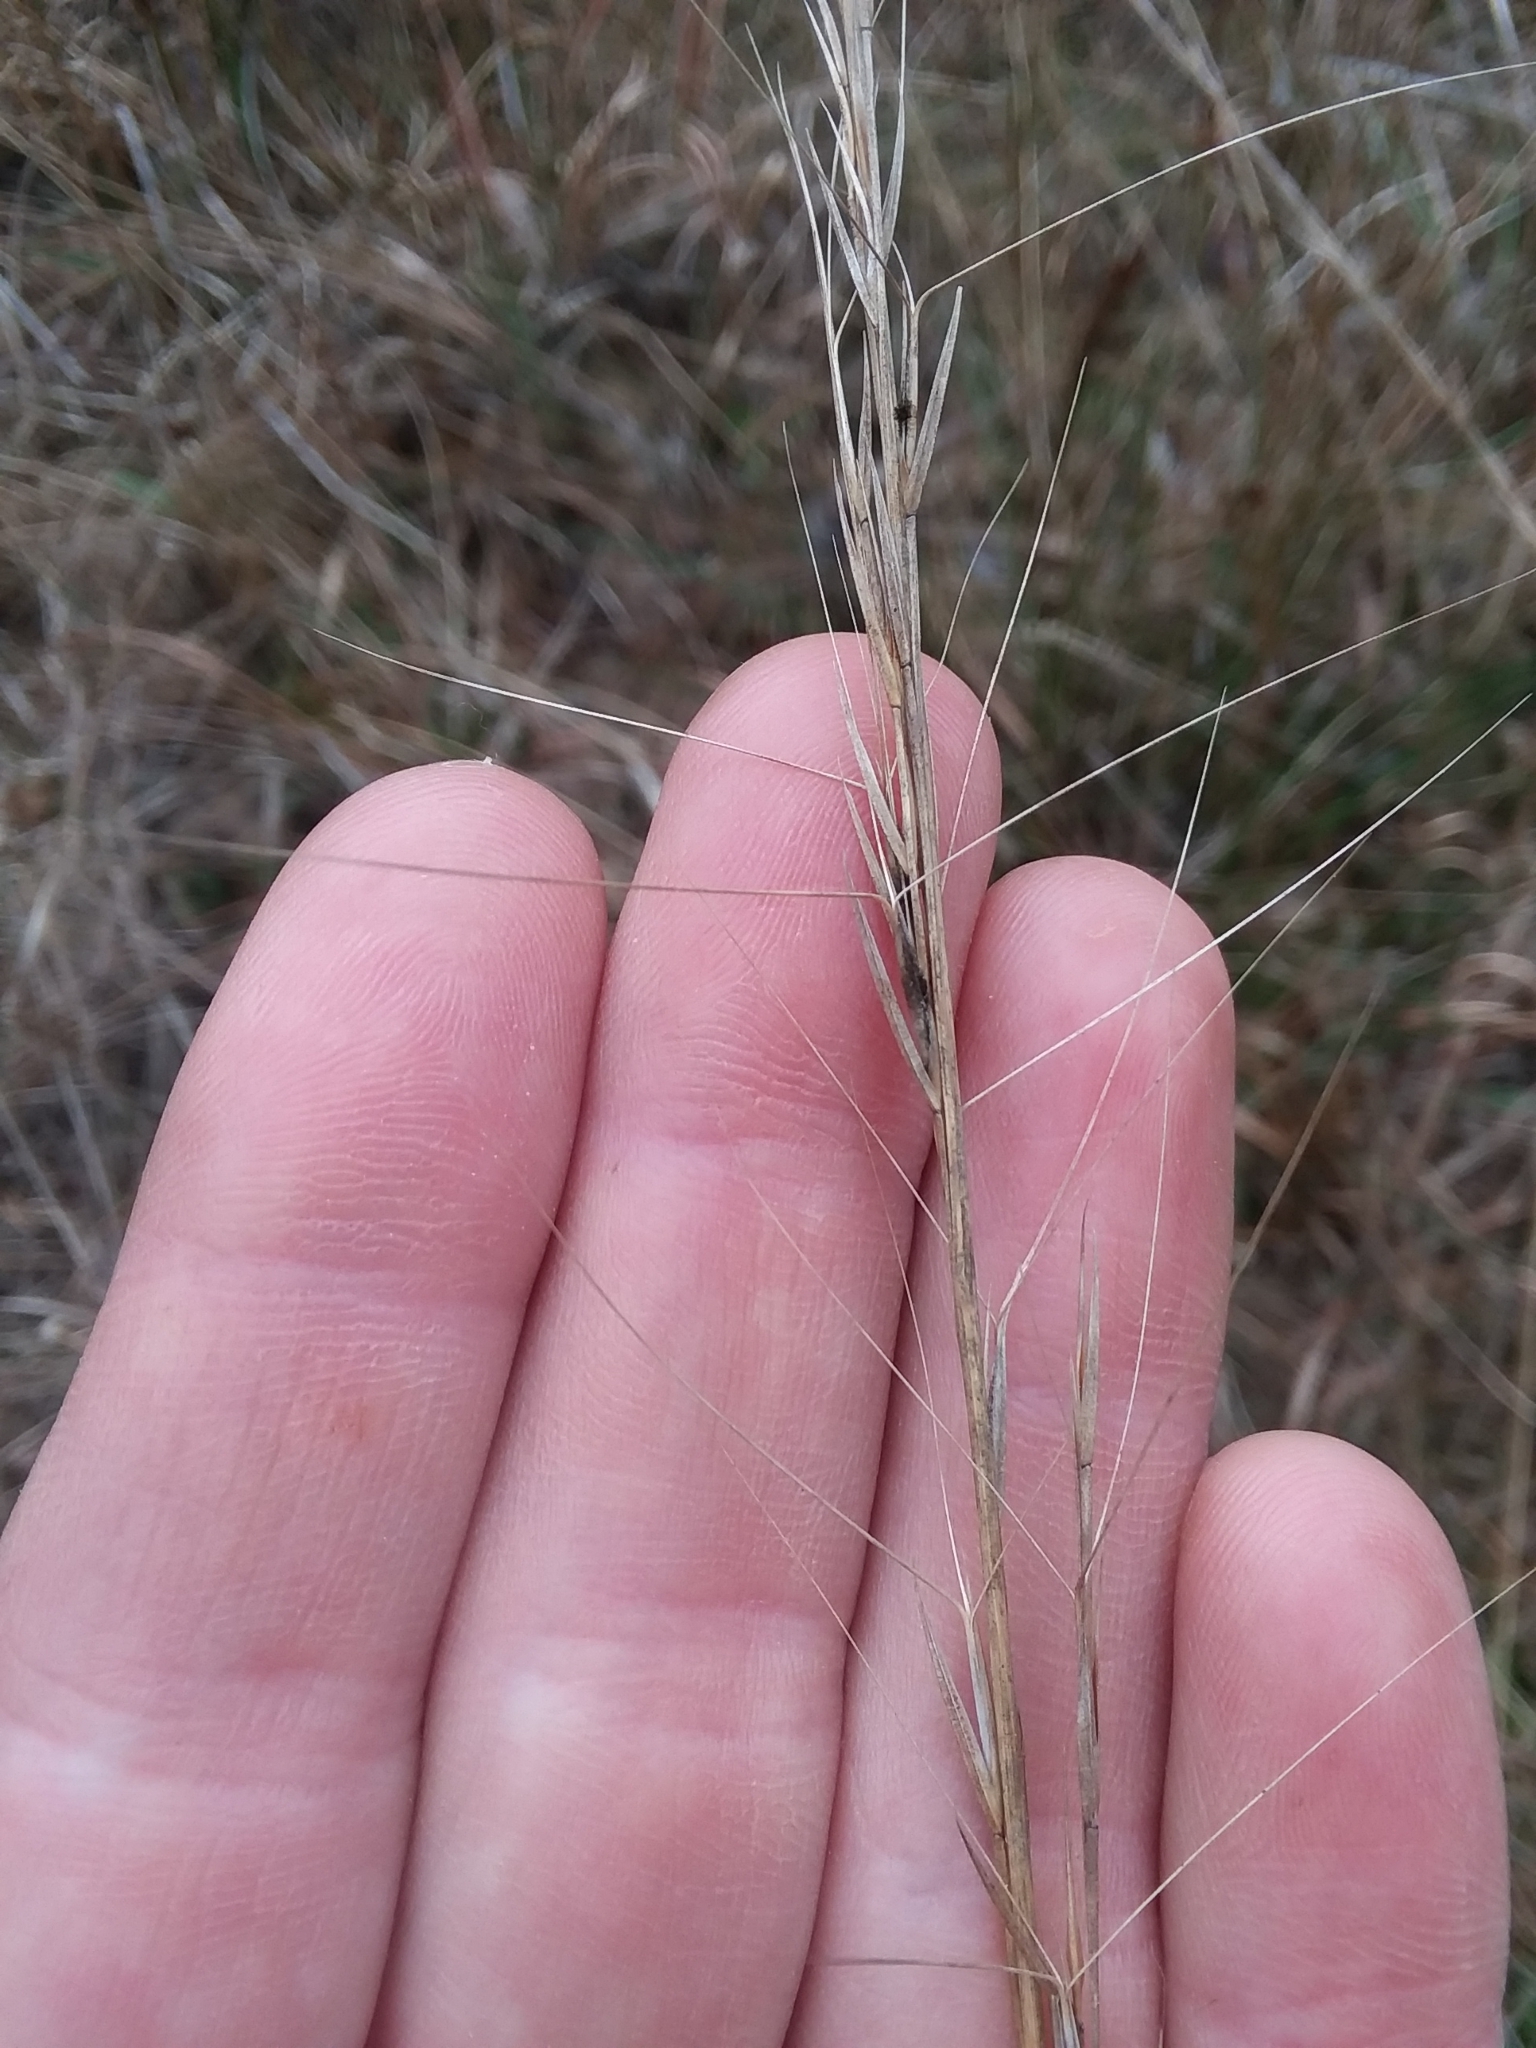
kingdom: Plantae
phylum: Tracheophyta
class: Liliopsida
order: Poales
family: Poaceae
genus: Aristida
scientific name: Aristida palustris
